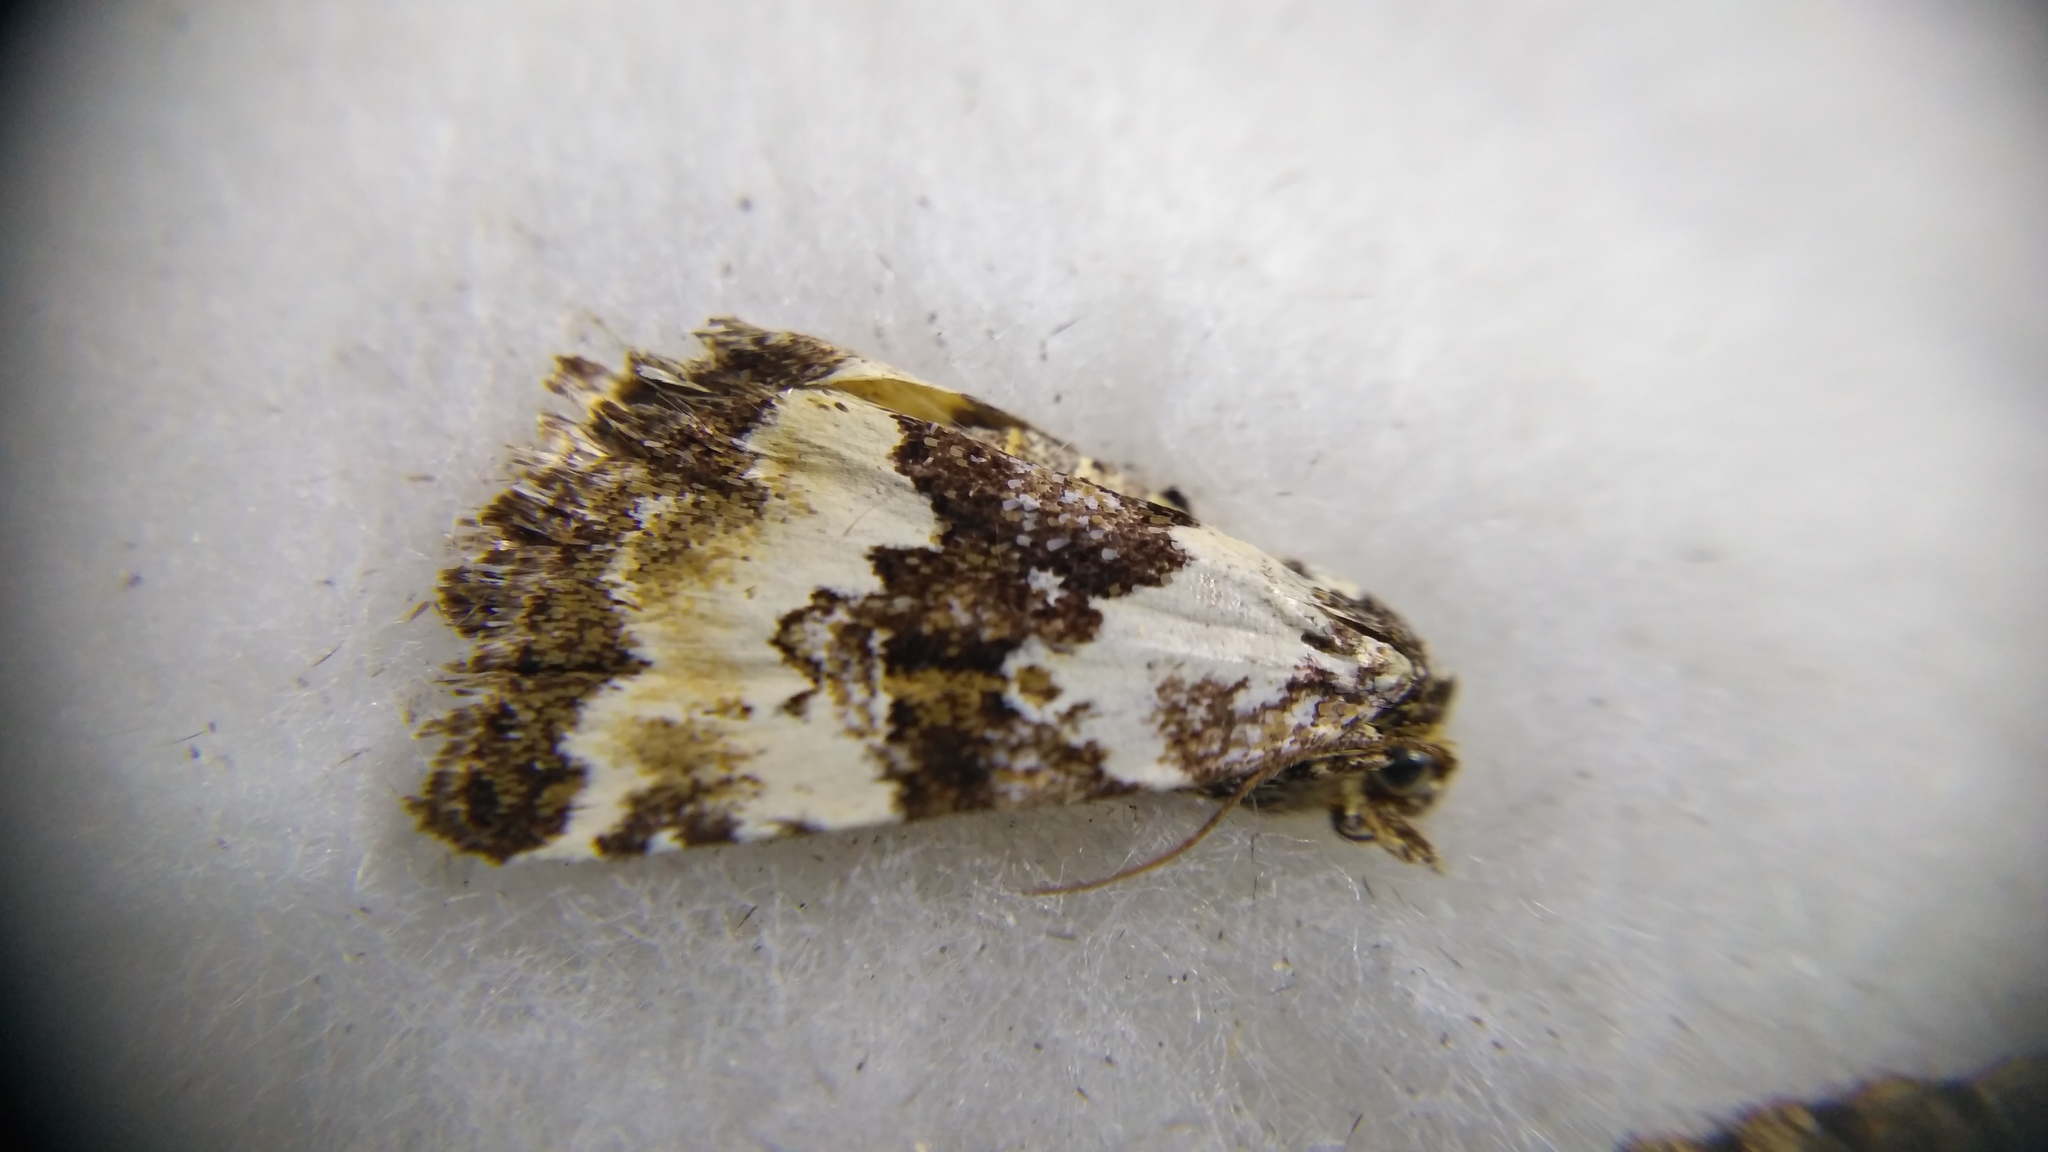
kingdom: Animalia
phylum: Arthropoda
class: Insecta
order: Lepidoptera
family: Noctuidae
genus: Deltote
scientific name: Deltote deceptoria
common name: Pretty marbled
